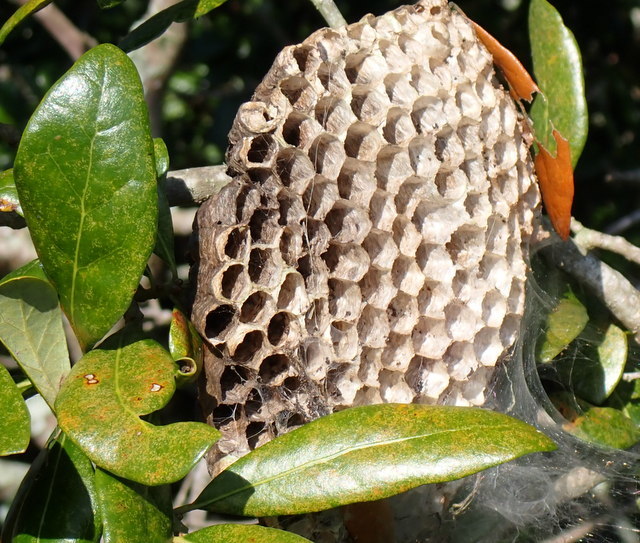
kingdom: Animalia
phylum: Arthropoda
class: Insecta
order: Hymenoptera
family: Vespidae
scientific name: Vespidae
